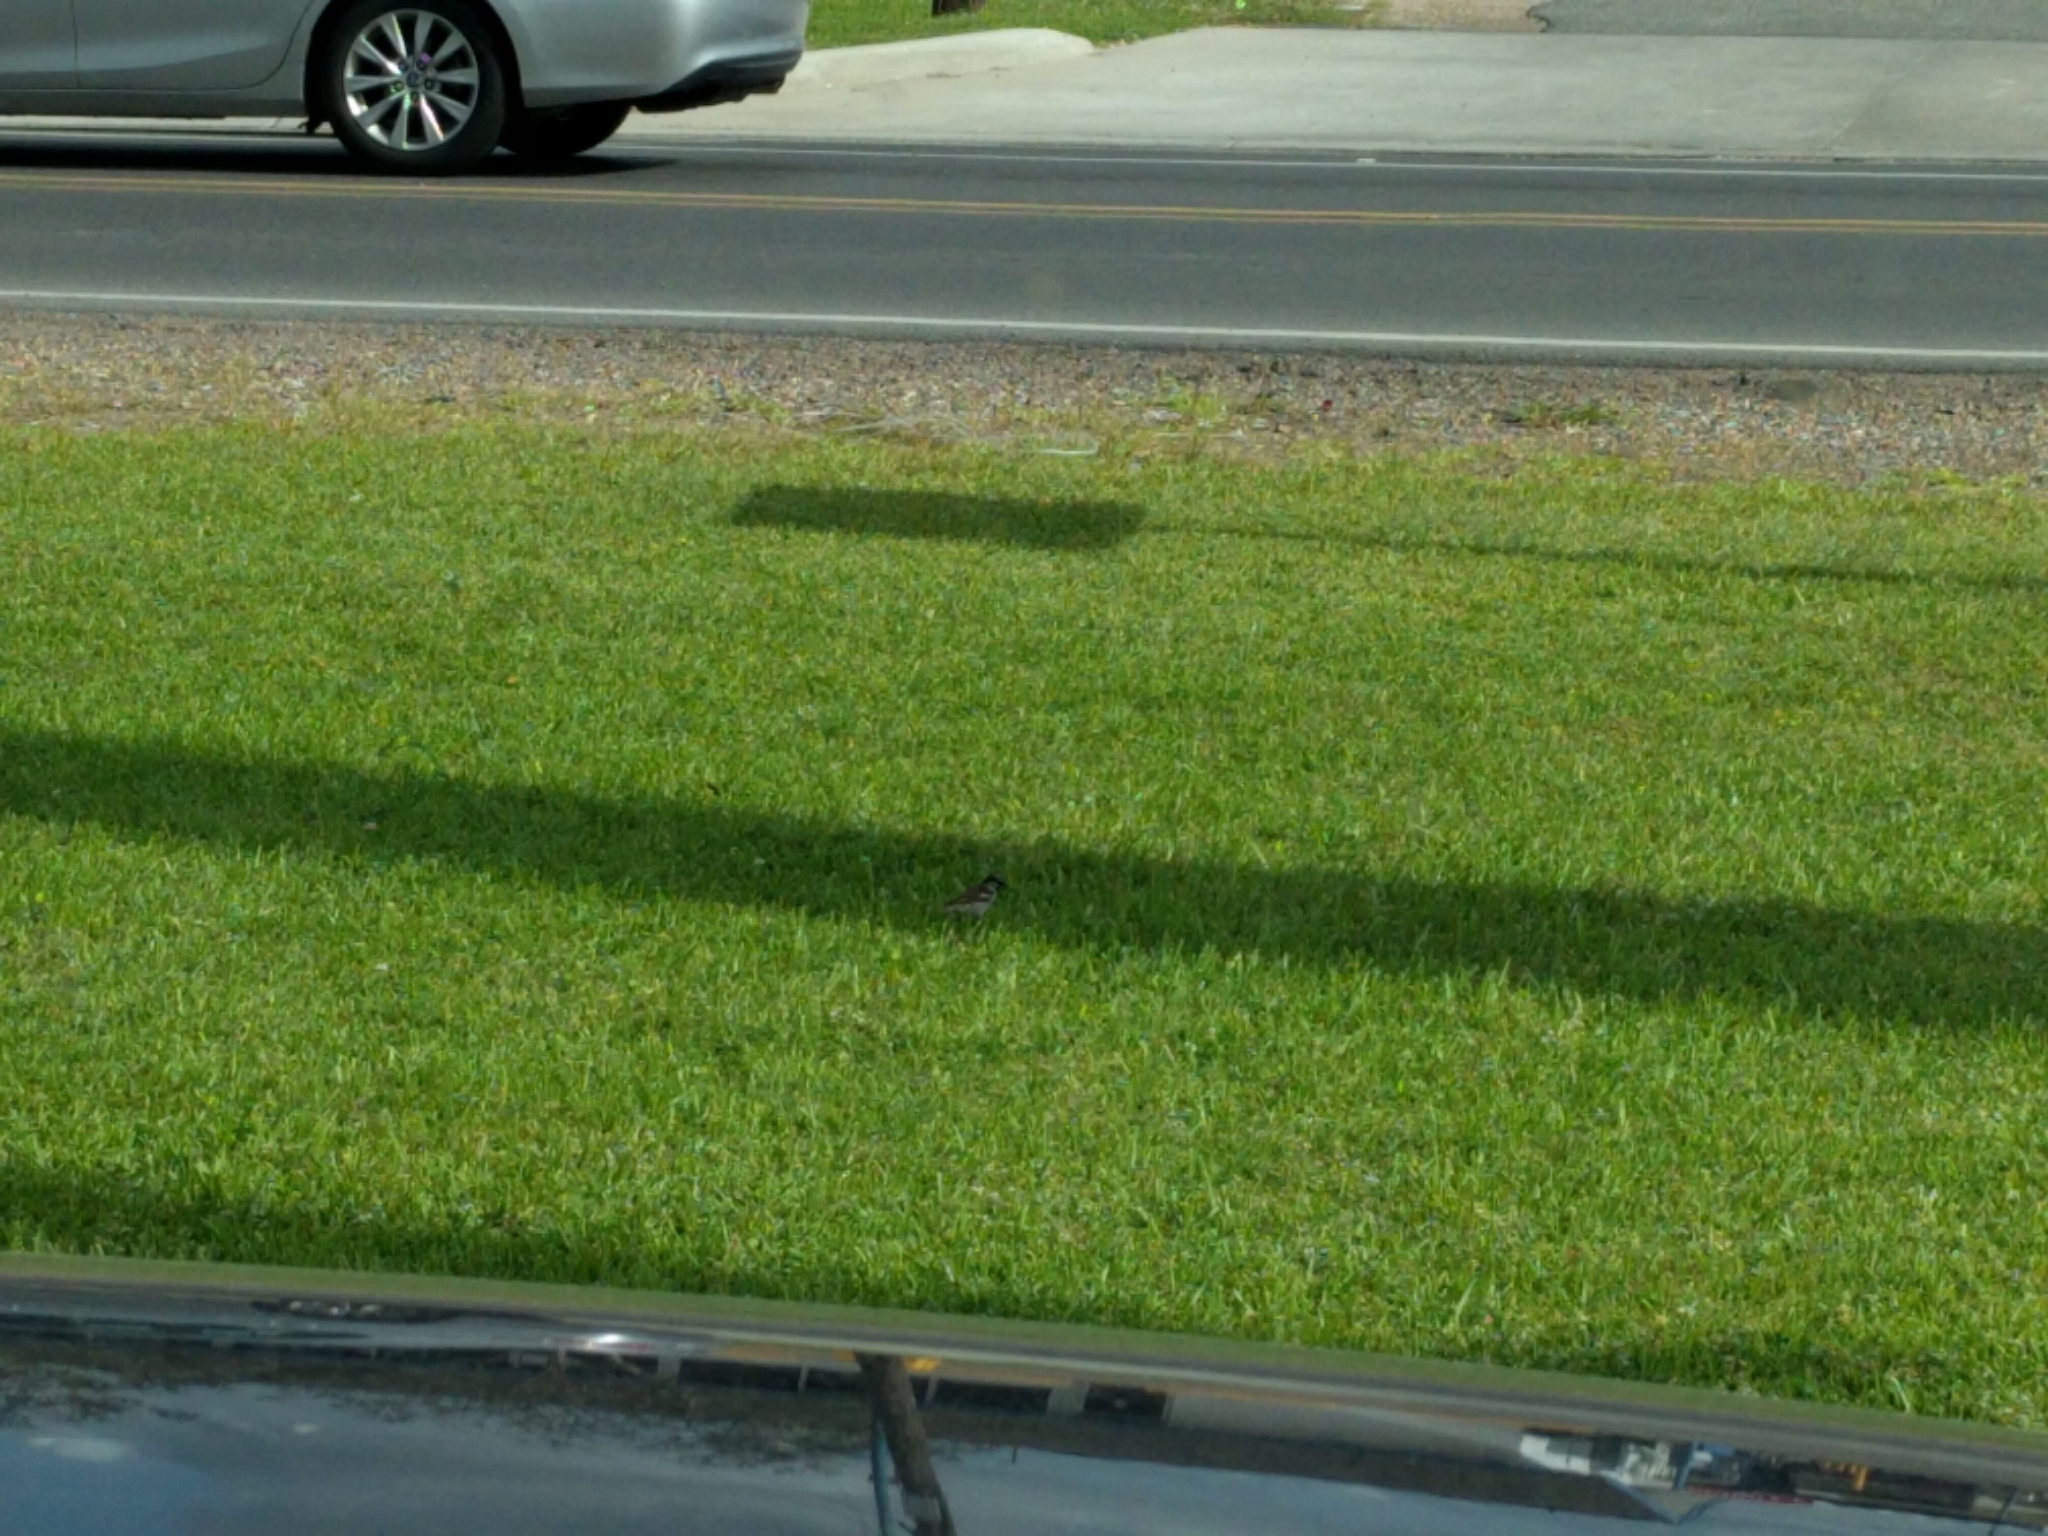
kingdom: Animalia
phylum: Chordata
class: Aves
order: Passeriformes
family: Passeridae
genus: Passer
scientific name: Passer domesticus
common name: House sparrow
